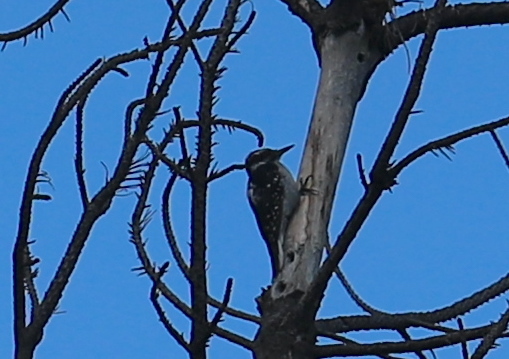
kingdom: Animalia
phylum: Chordata
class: Aves
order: Piciformes
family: Picidae
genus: Leuconotopicus
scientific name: Leuconotopicus villosus
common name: Hairy woodpecker
